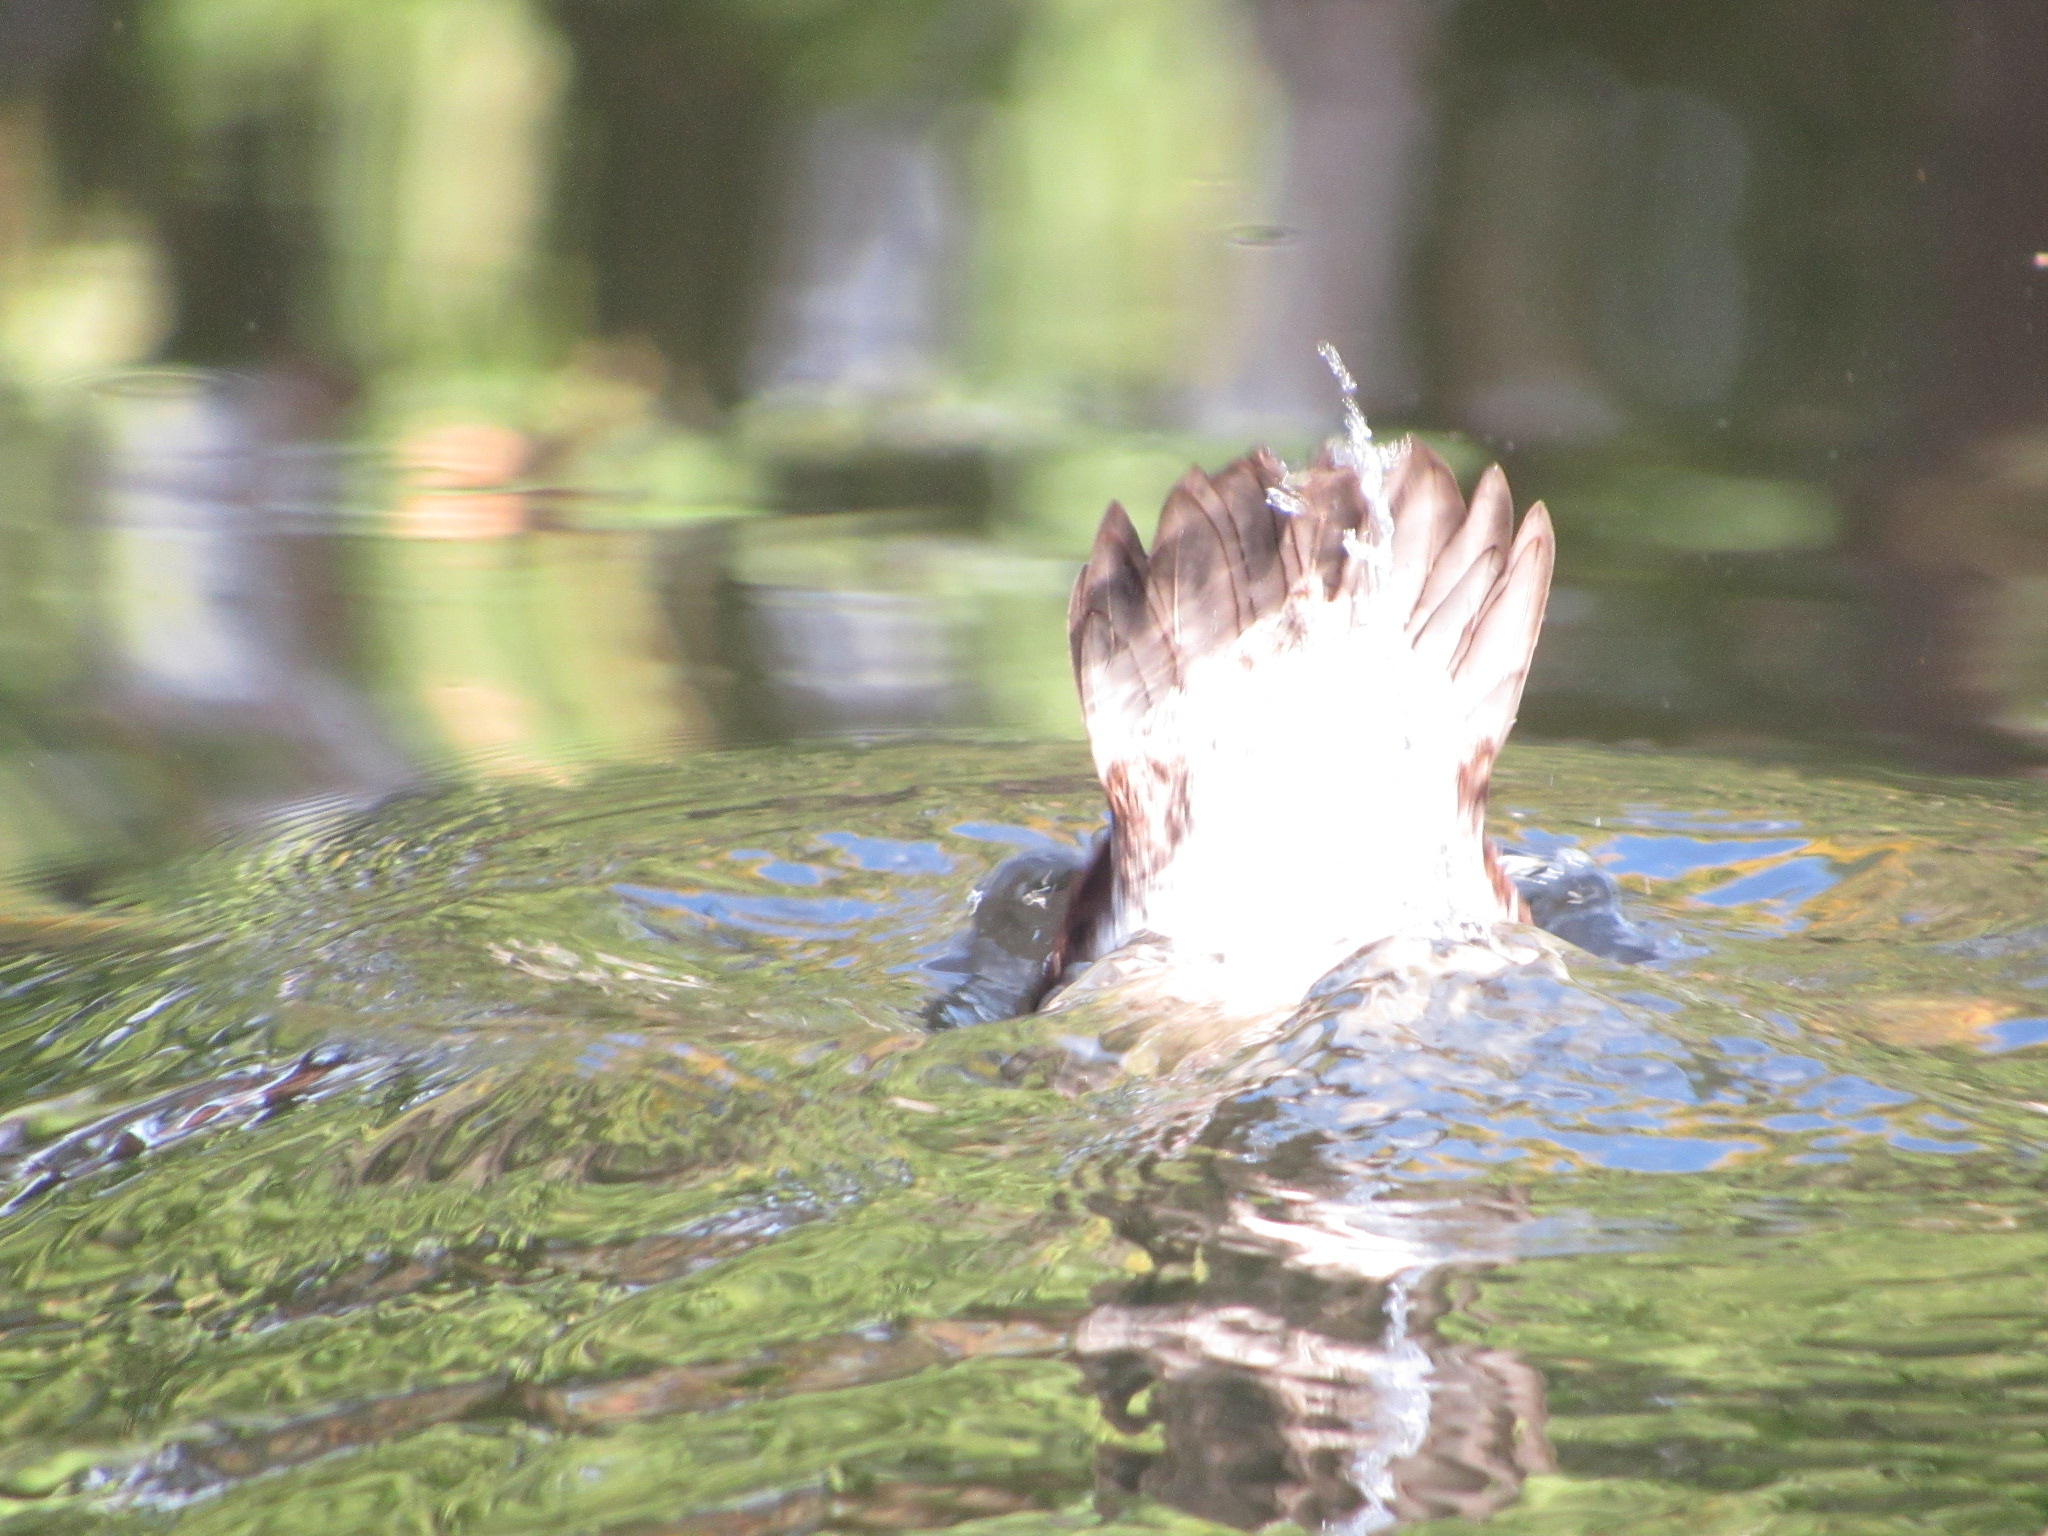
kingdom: Animalia
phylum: Chordata
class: Aves
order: Anseriformes
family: Anatidae
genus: Lophodytes
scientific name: Lophodytes cucullatus
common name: Hooded merganser
